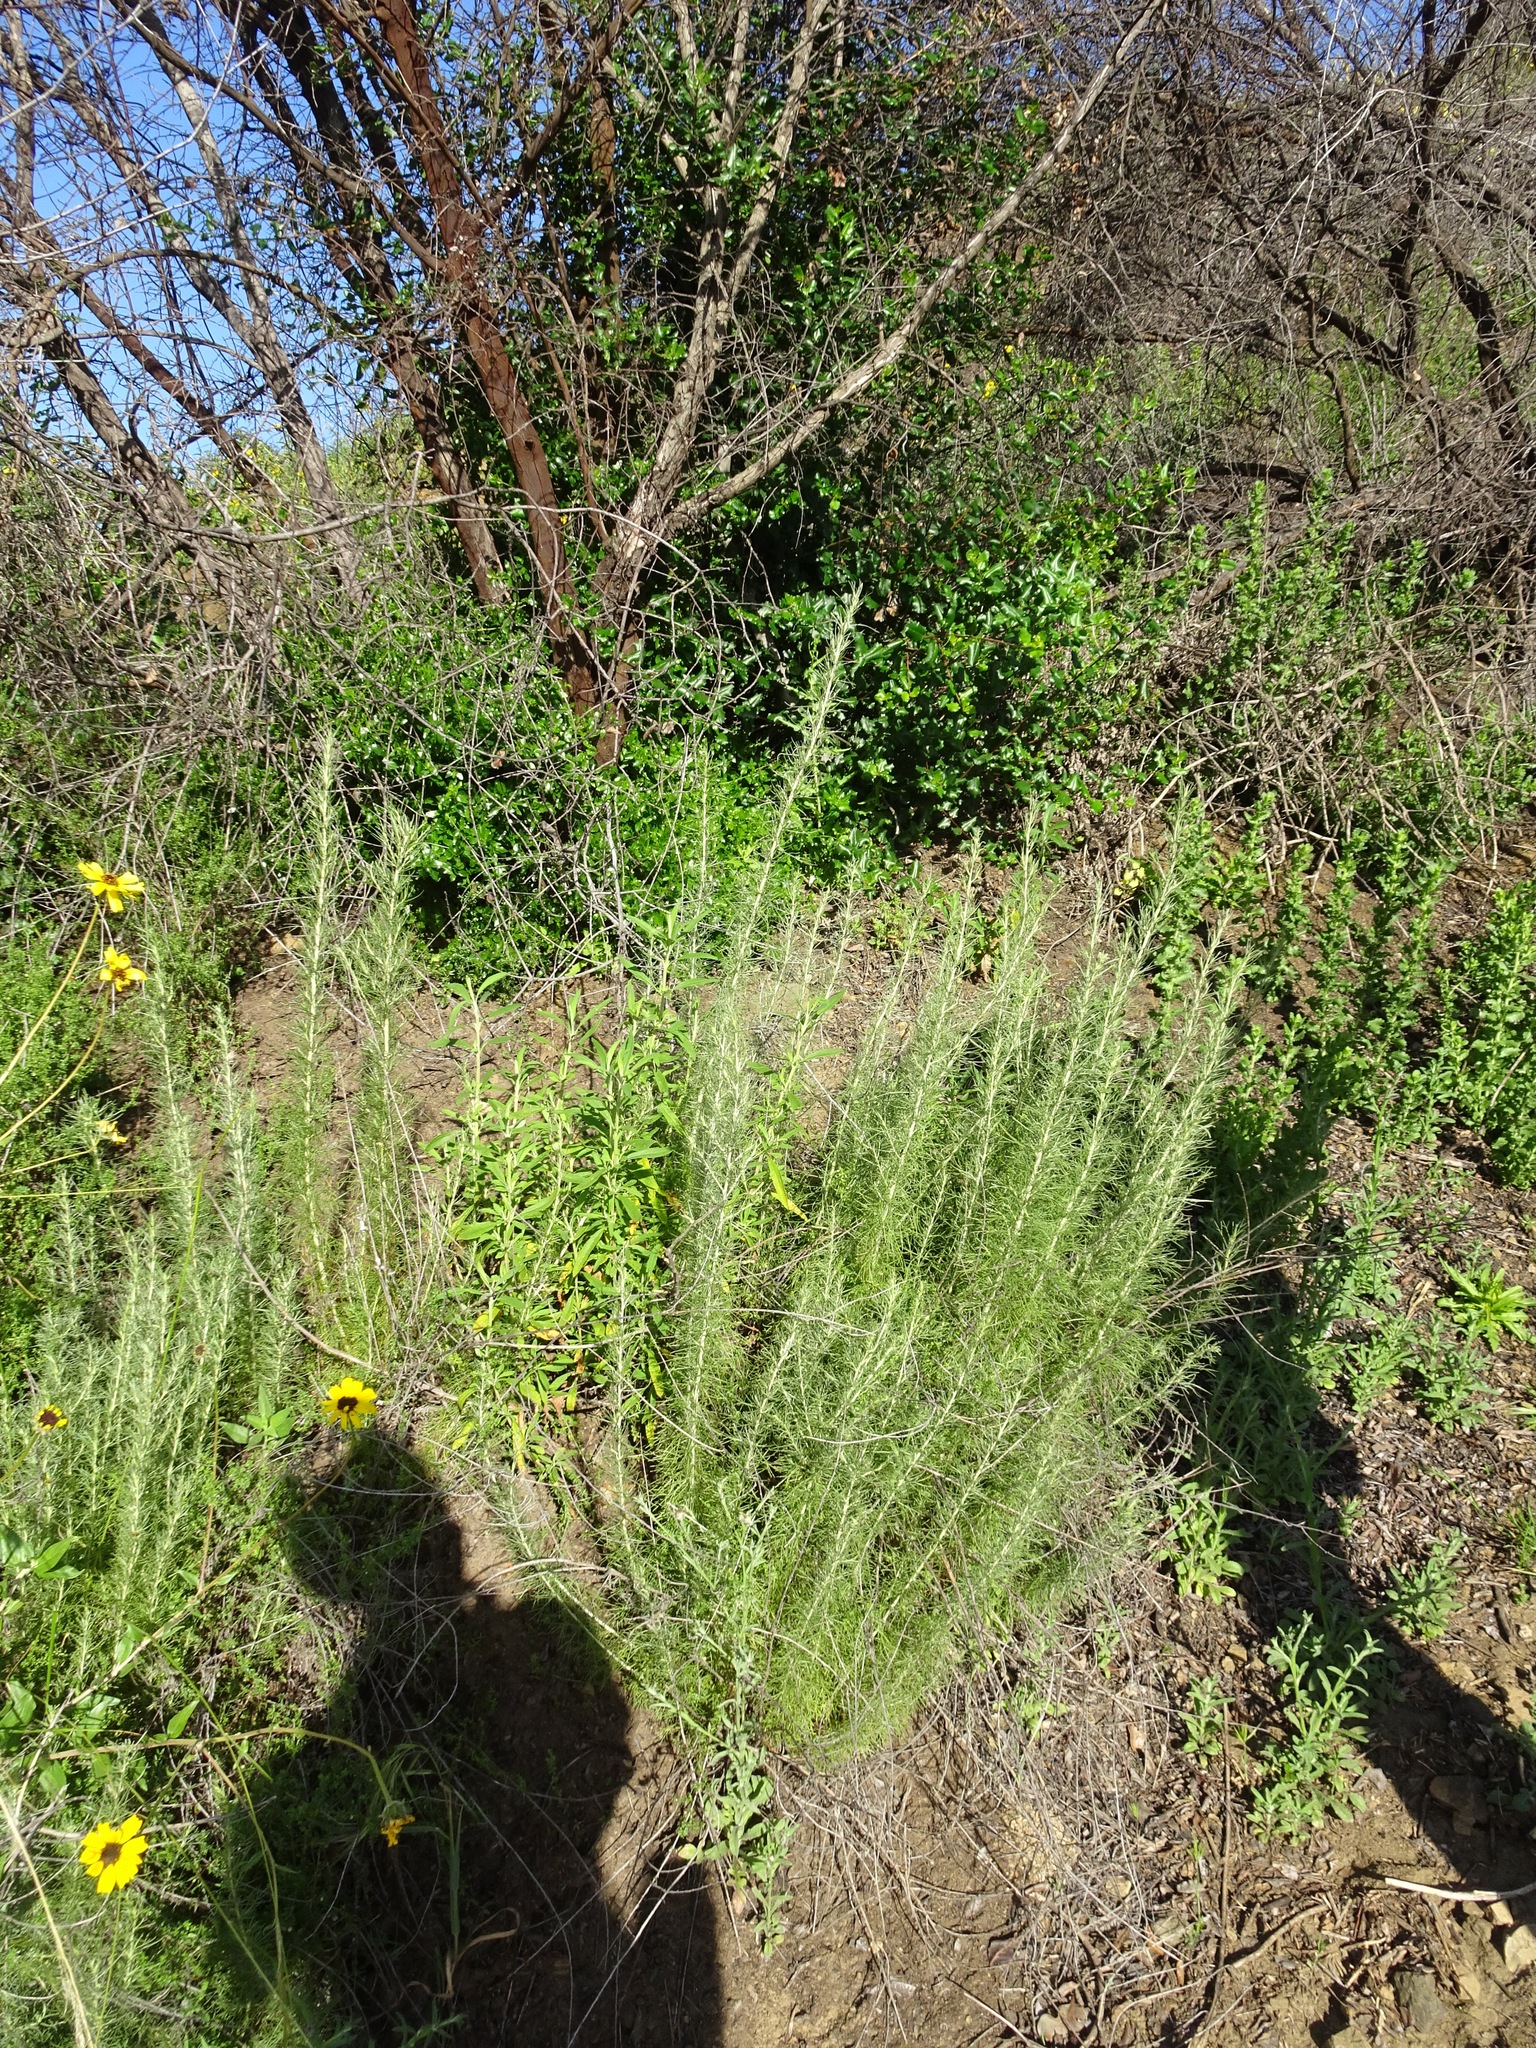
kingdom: Plantae
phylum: Tracheophyta
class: Magnoliopsida
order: Asterales
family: Asteraceae
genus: Artemisia
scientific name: Artemisia californica
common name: California sagebrush
